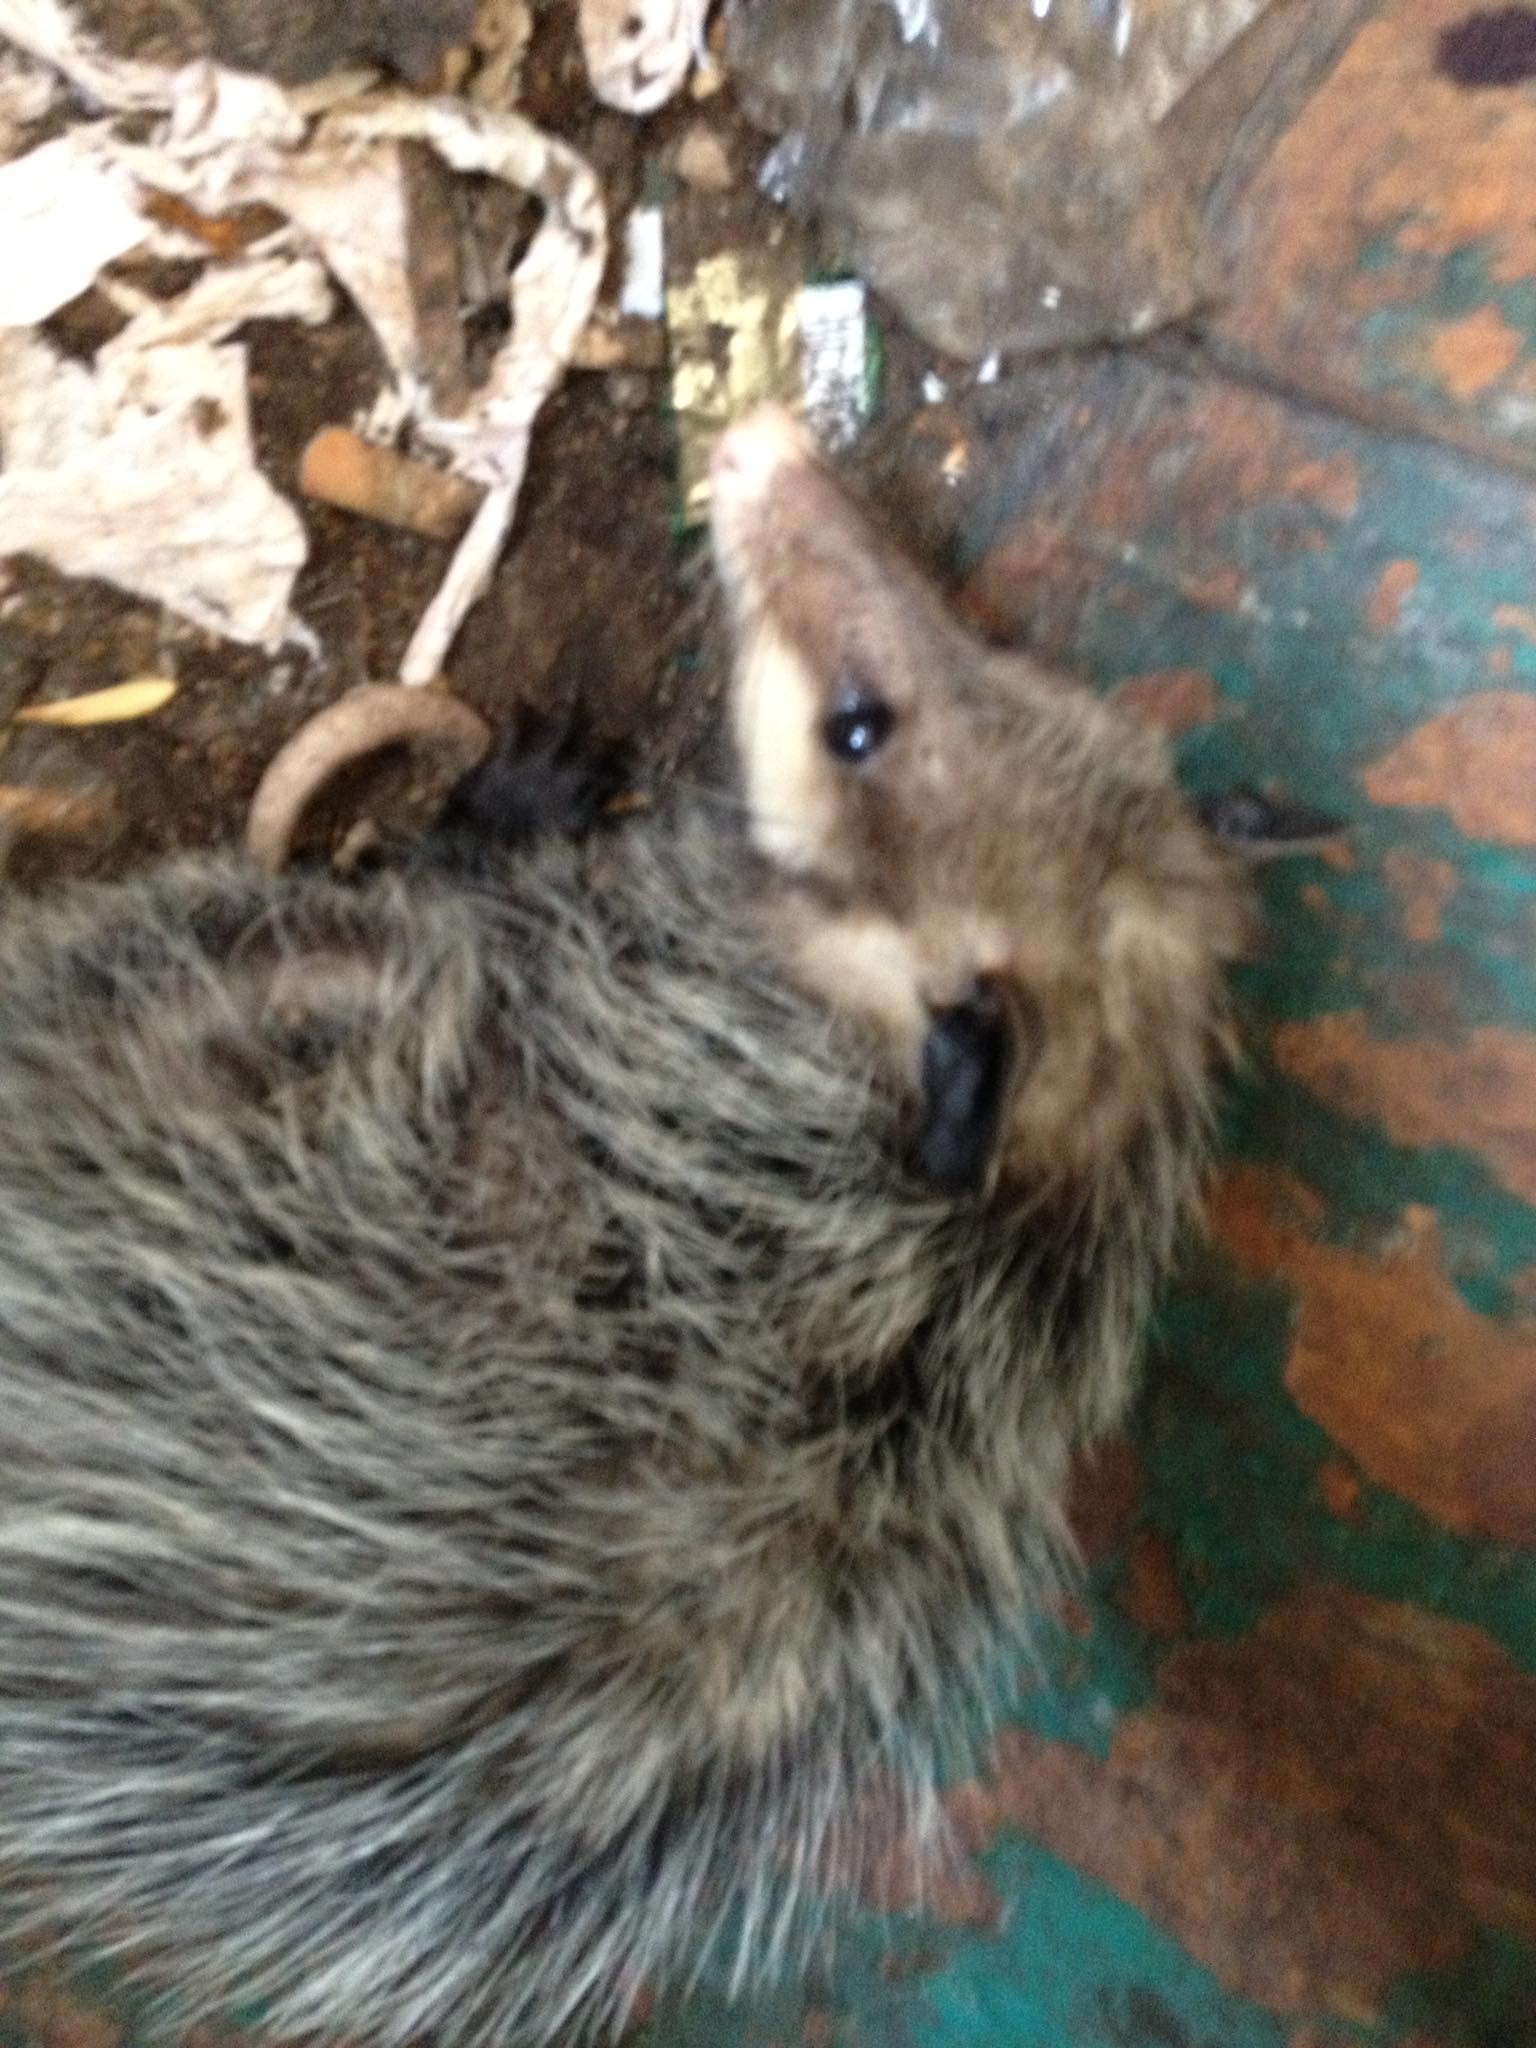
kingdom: Animalia
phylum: Chordata
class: Mammalia
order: Didelphimorphia
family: Didelphidae
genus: Didelphis
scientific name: Didelphis virginiana
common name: Virginia opossum
